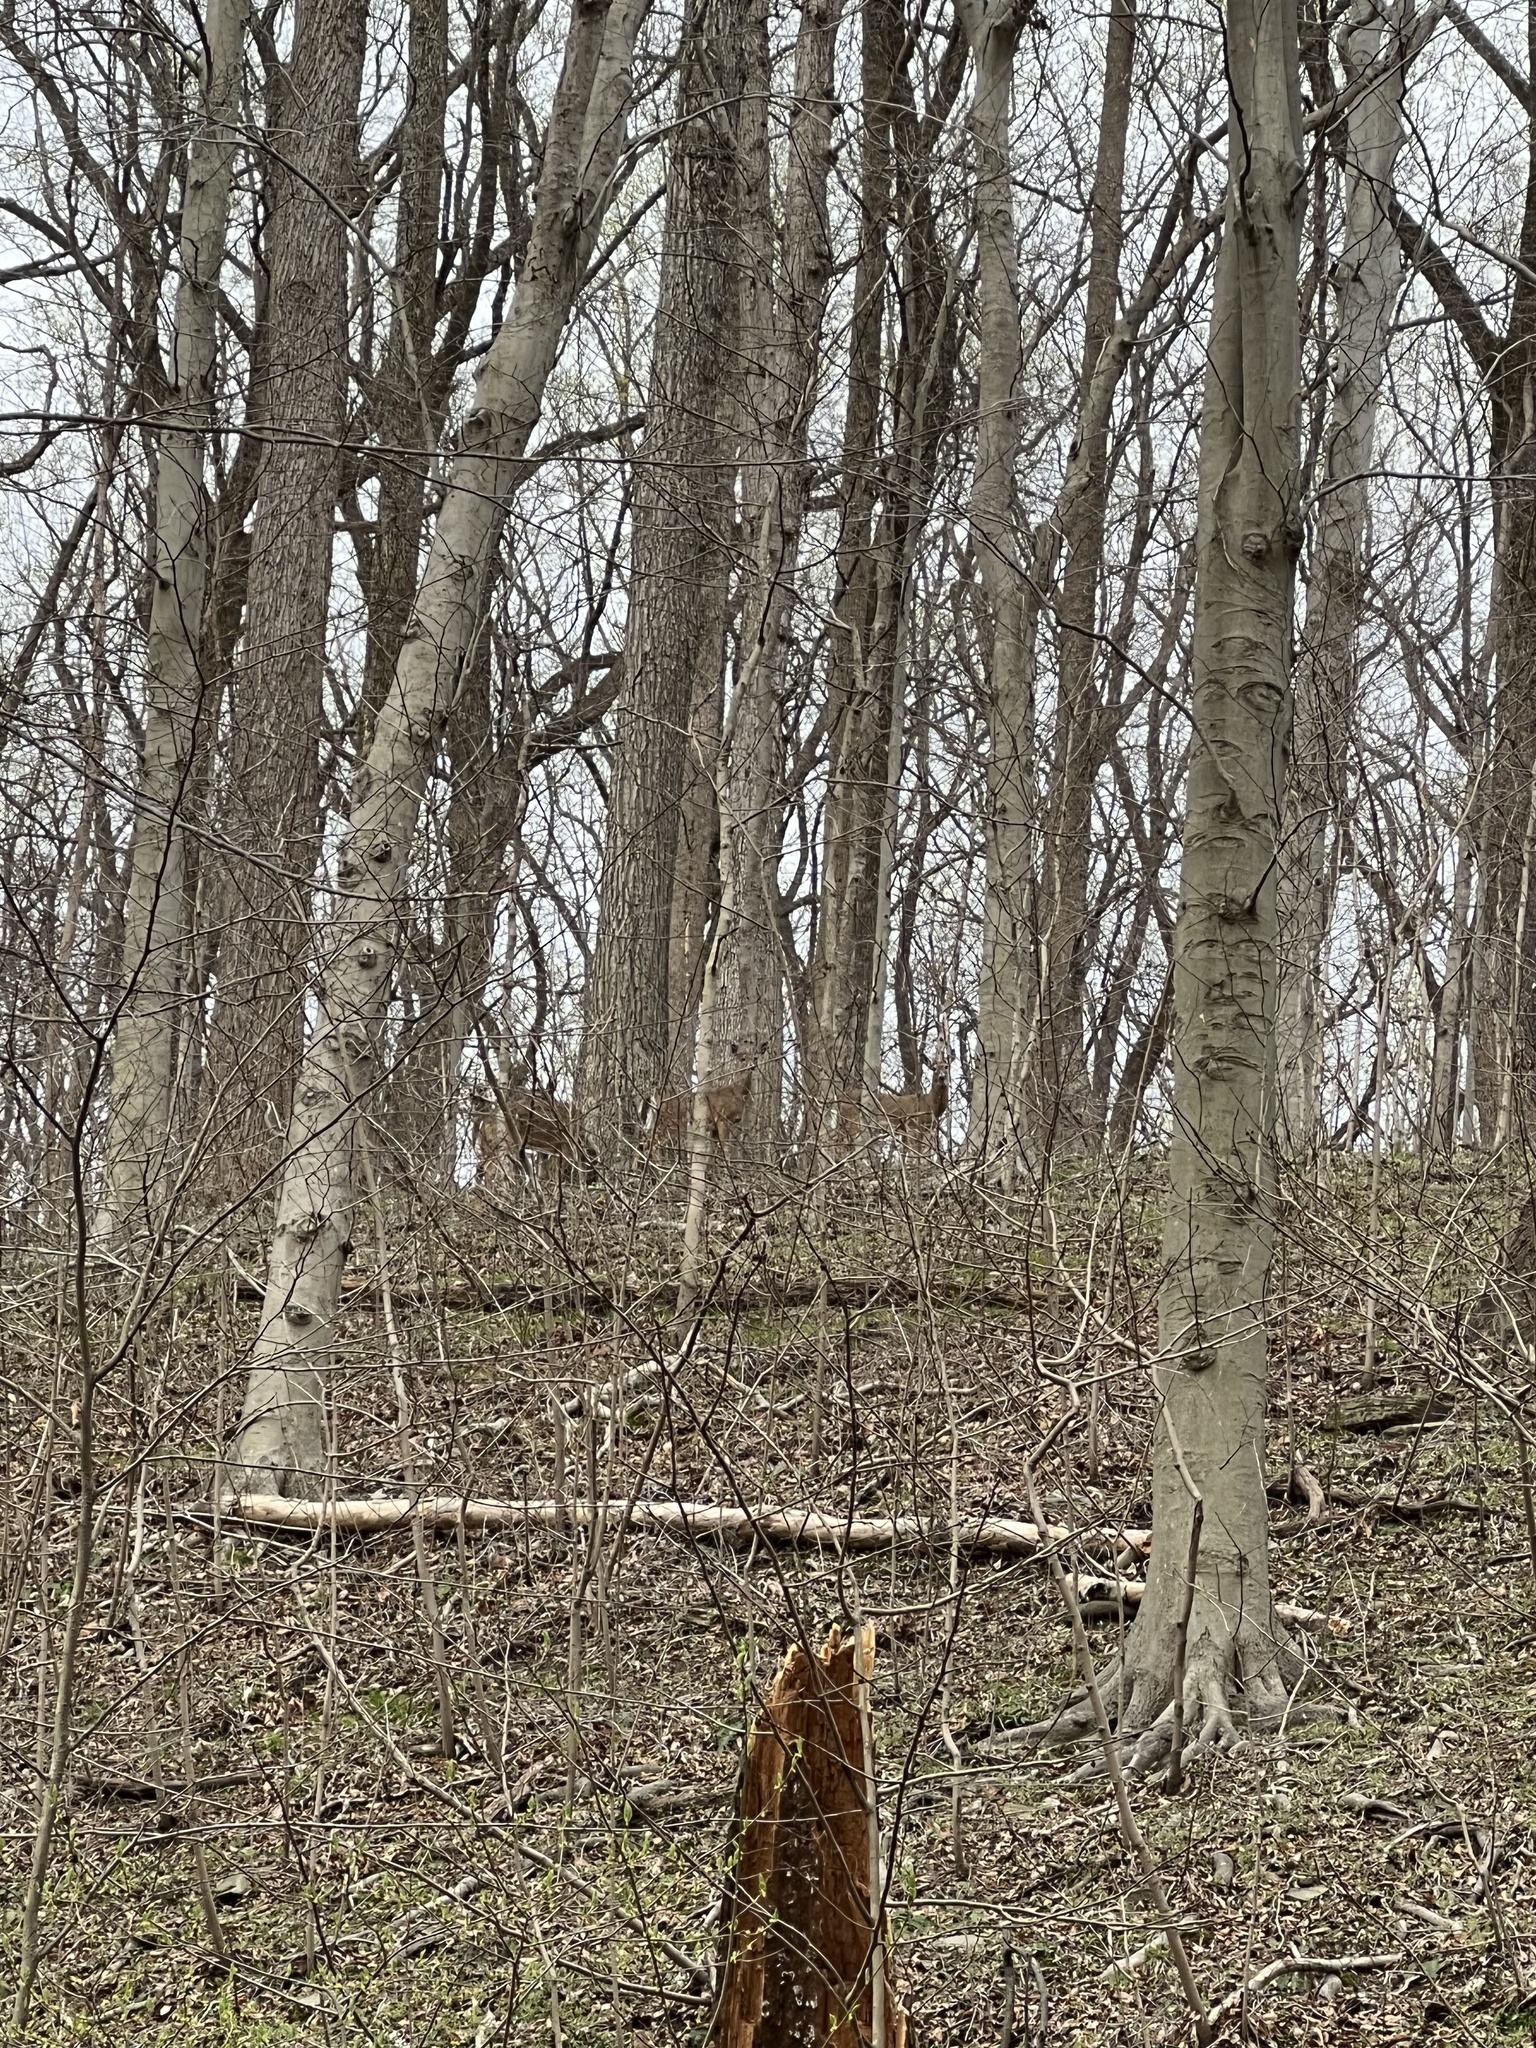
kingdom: Animalia
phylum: Chordata
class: Mammalia
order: Artiodactyla
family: Cervidae
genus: Odocoileus
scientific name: Odocoileus virginianus
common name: White-tailed deer
